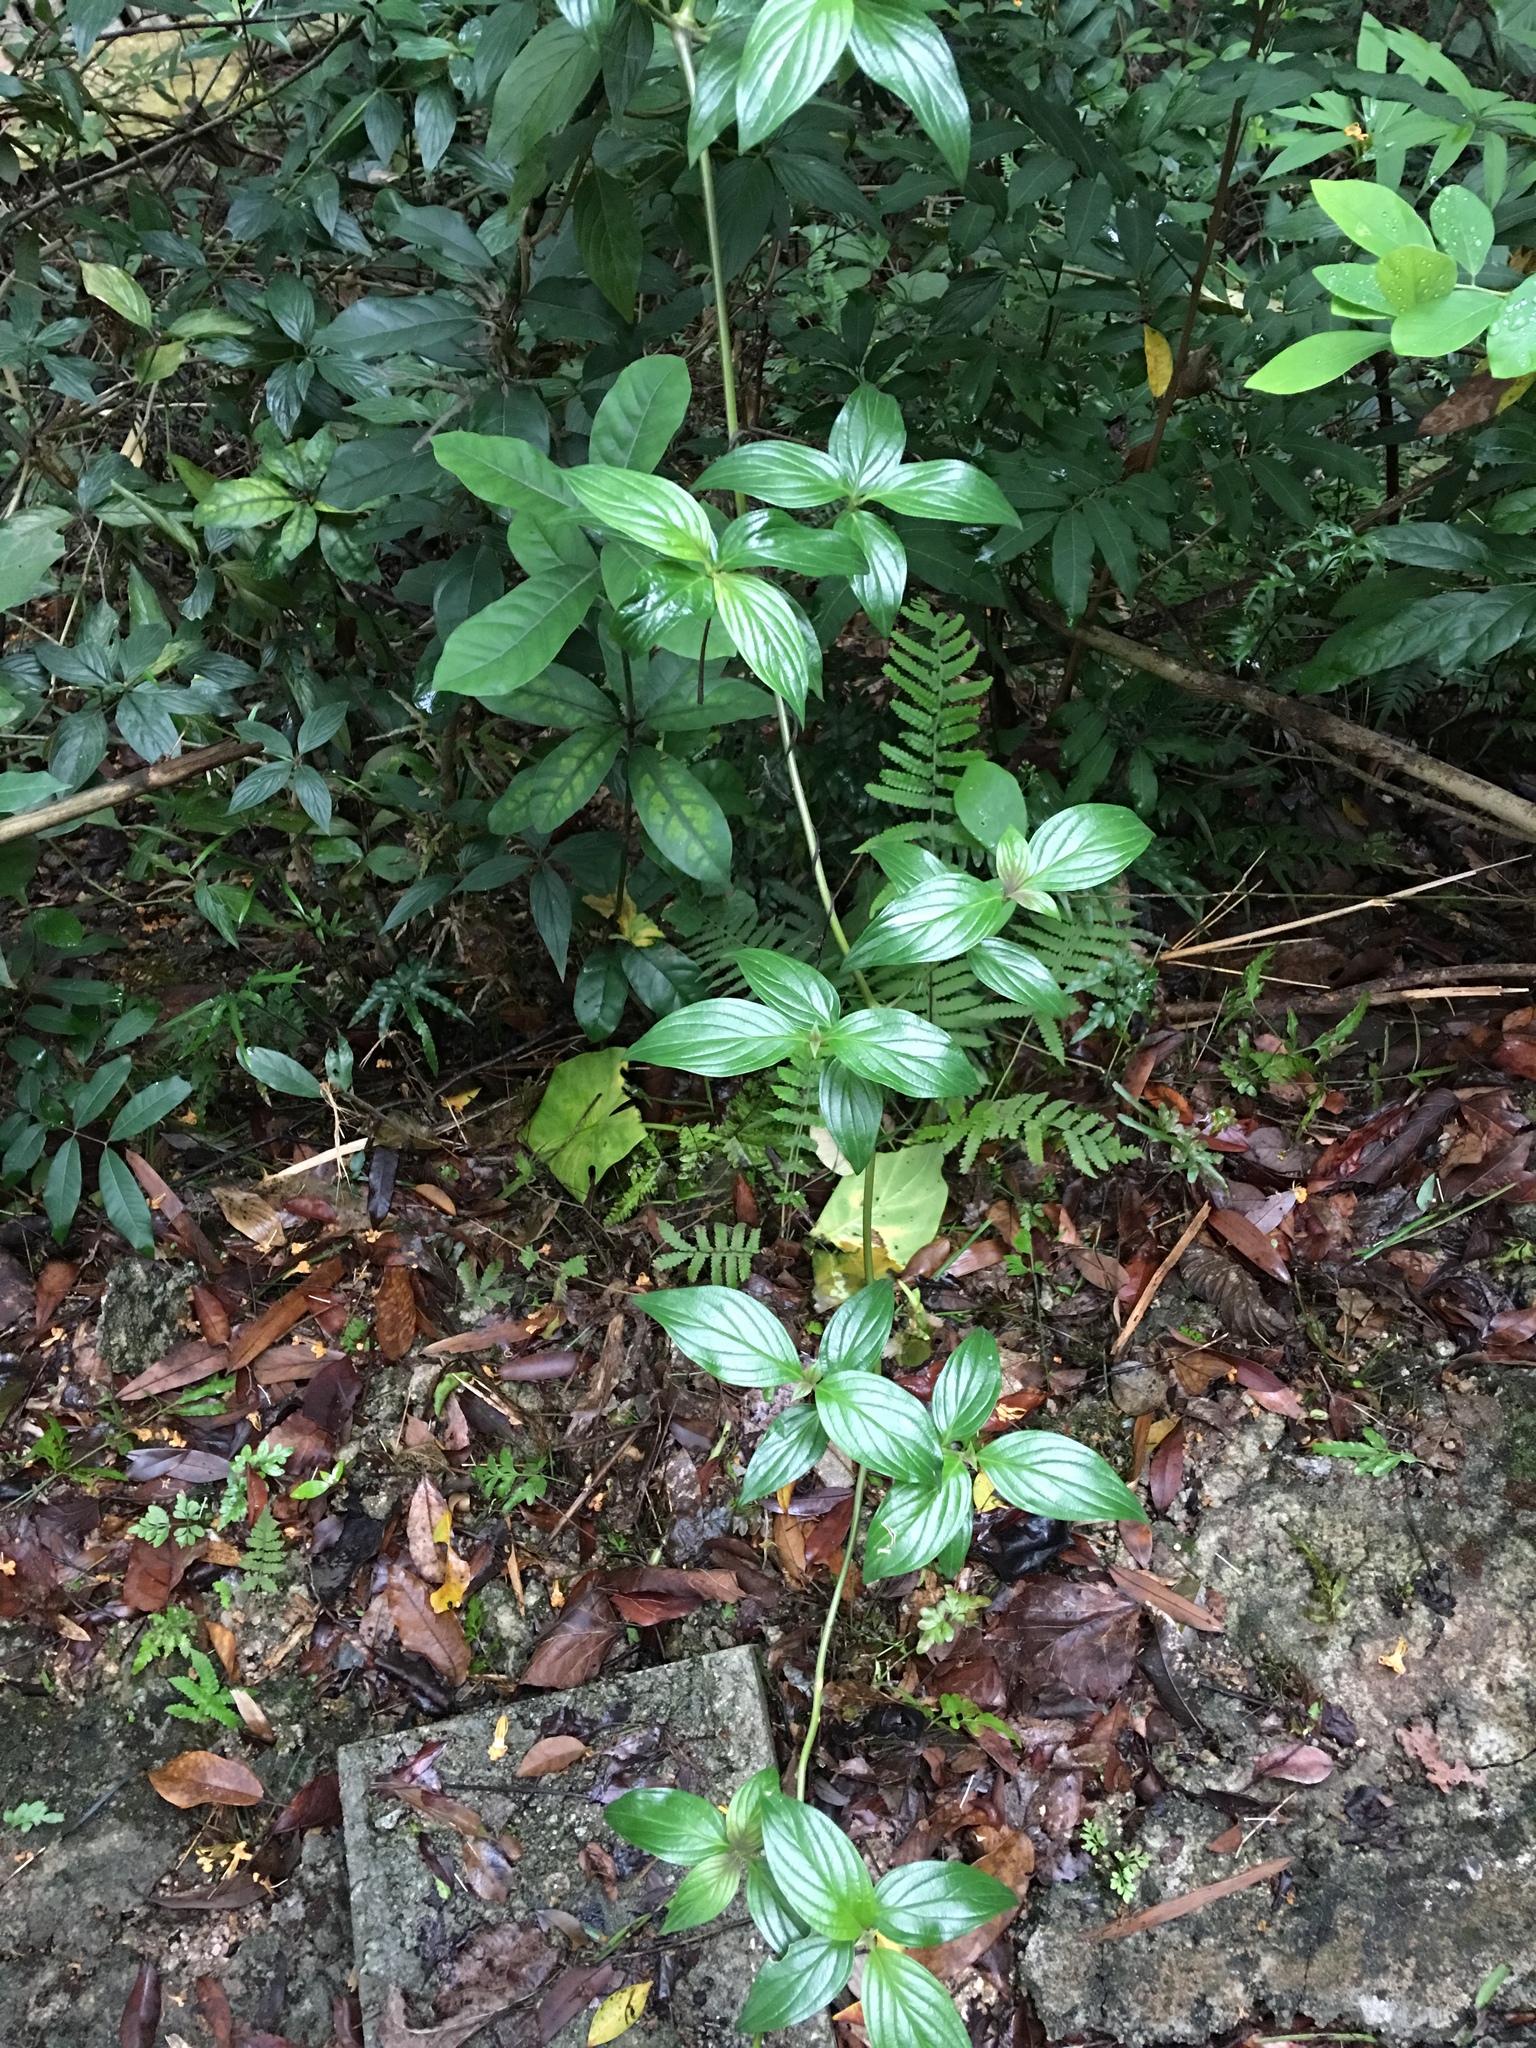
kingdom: Plantae
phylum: Tracheophyta
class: Magnoliopsida
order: Gentianales
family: Rubiaceae
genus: Dimetia
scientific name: Dimetia hedyotidea
